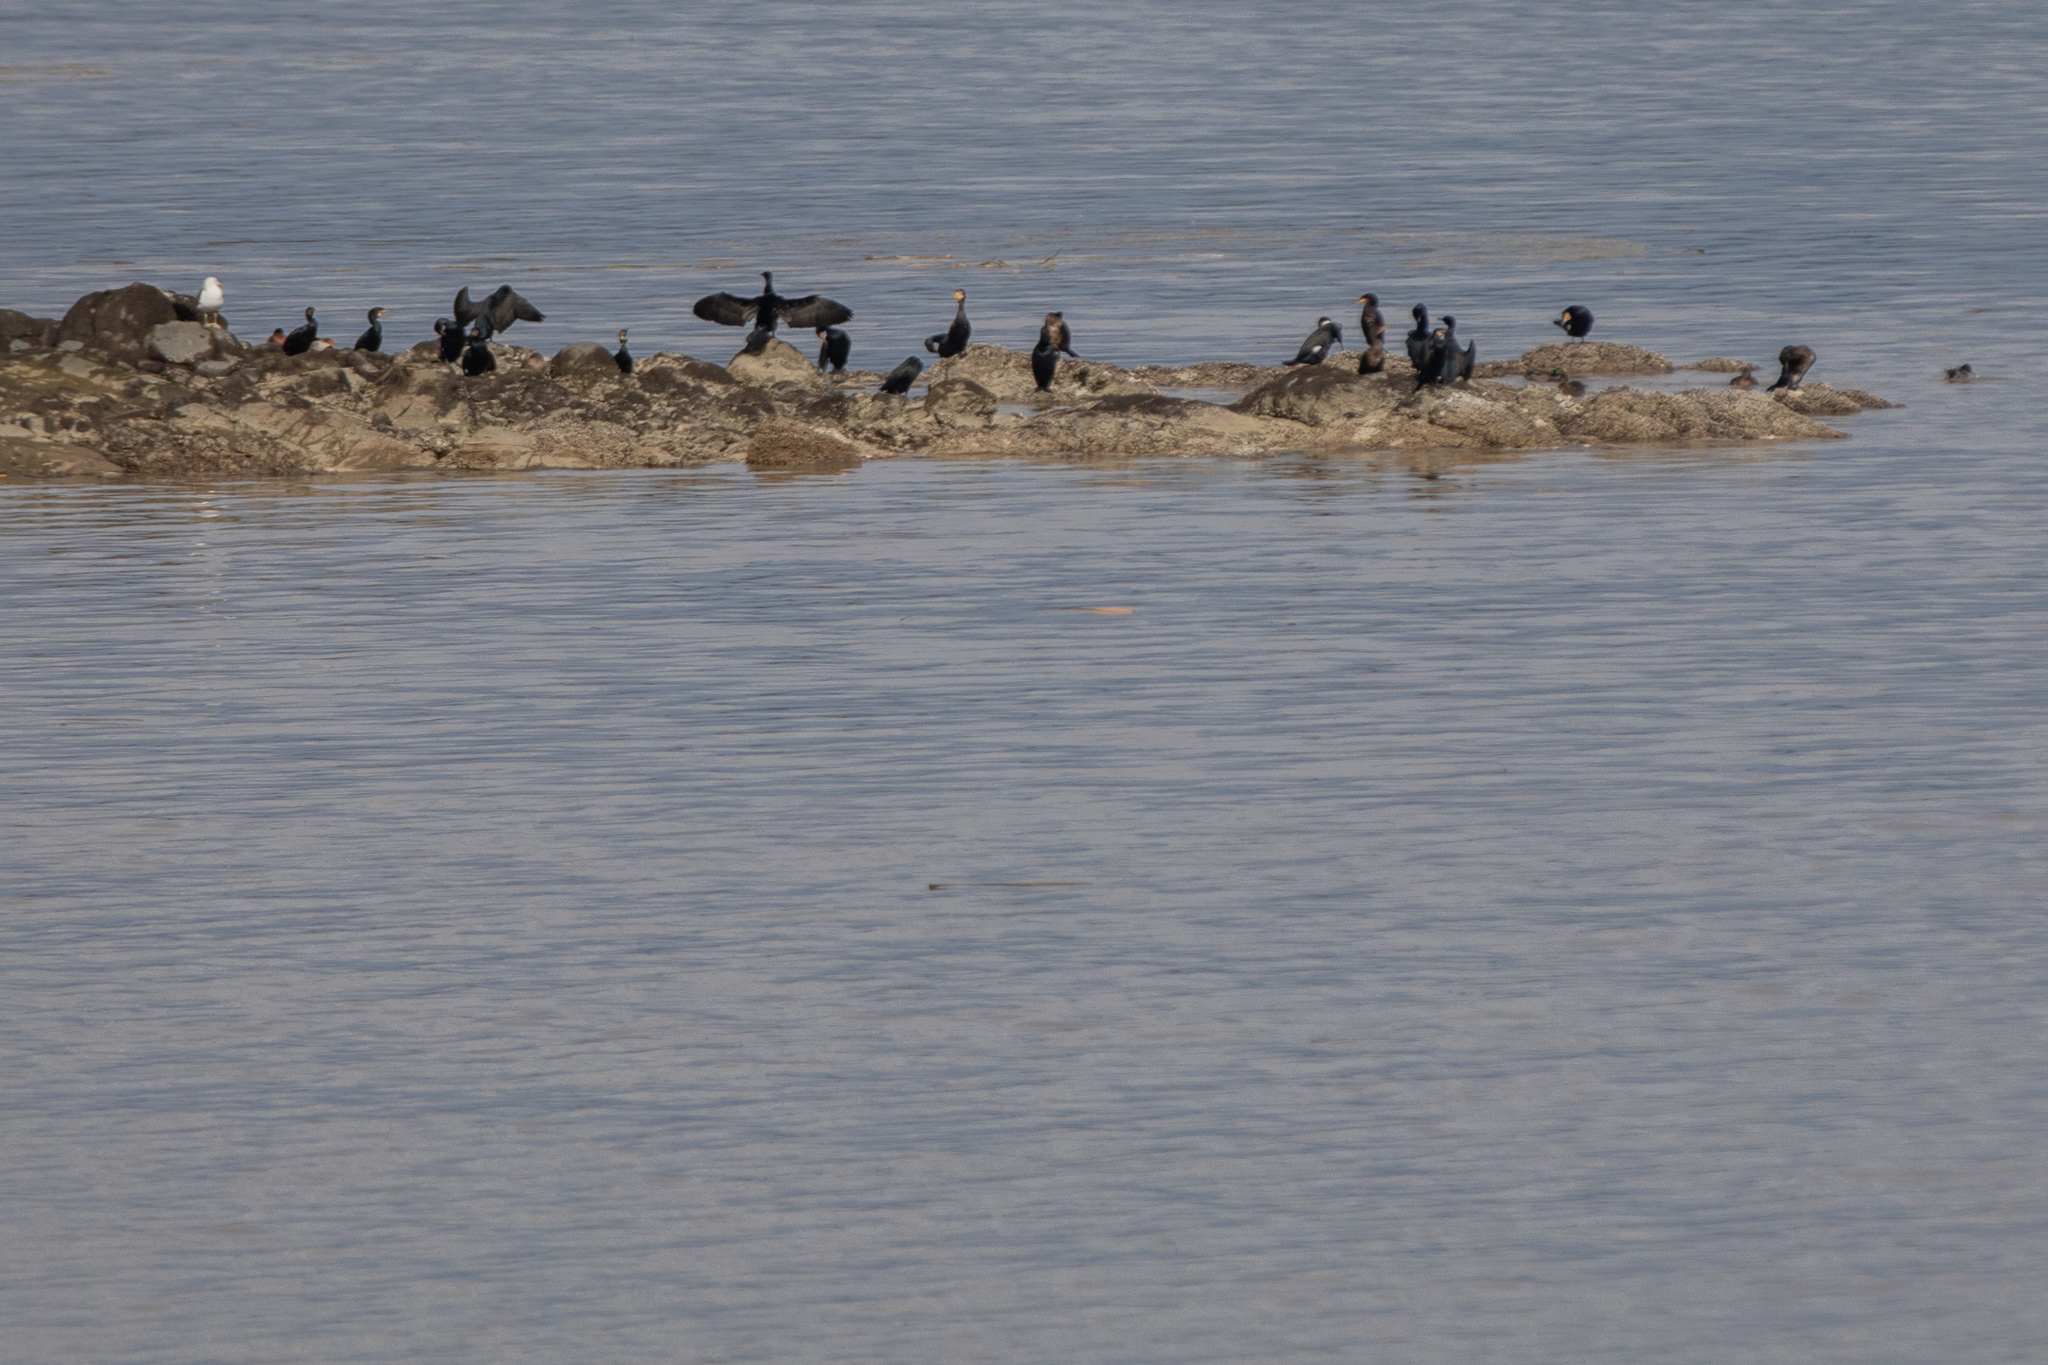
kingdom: Animalia
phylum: Chordata
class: Aves
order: Suliformes
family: Phalacrocoracidae
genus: Phalacrocorax
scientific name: Phalacrocorax carbo
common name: Great cormorant
